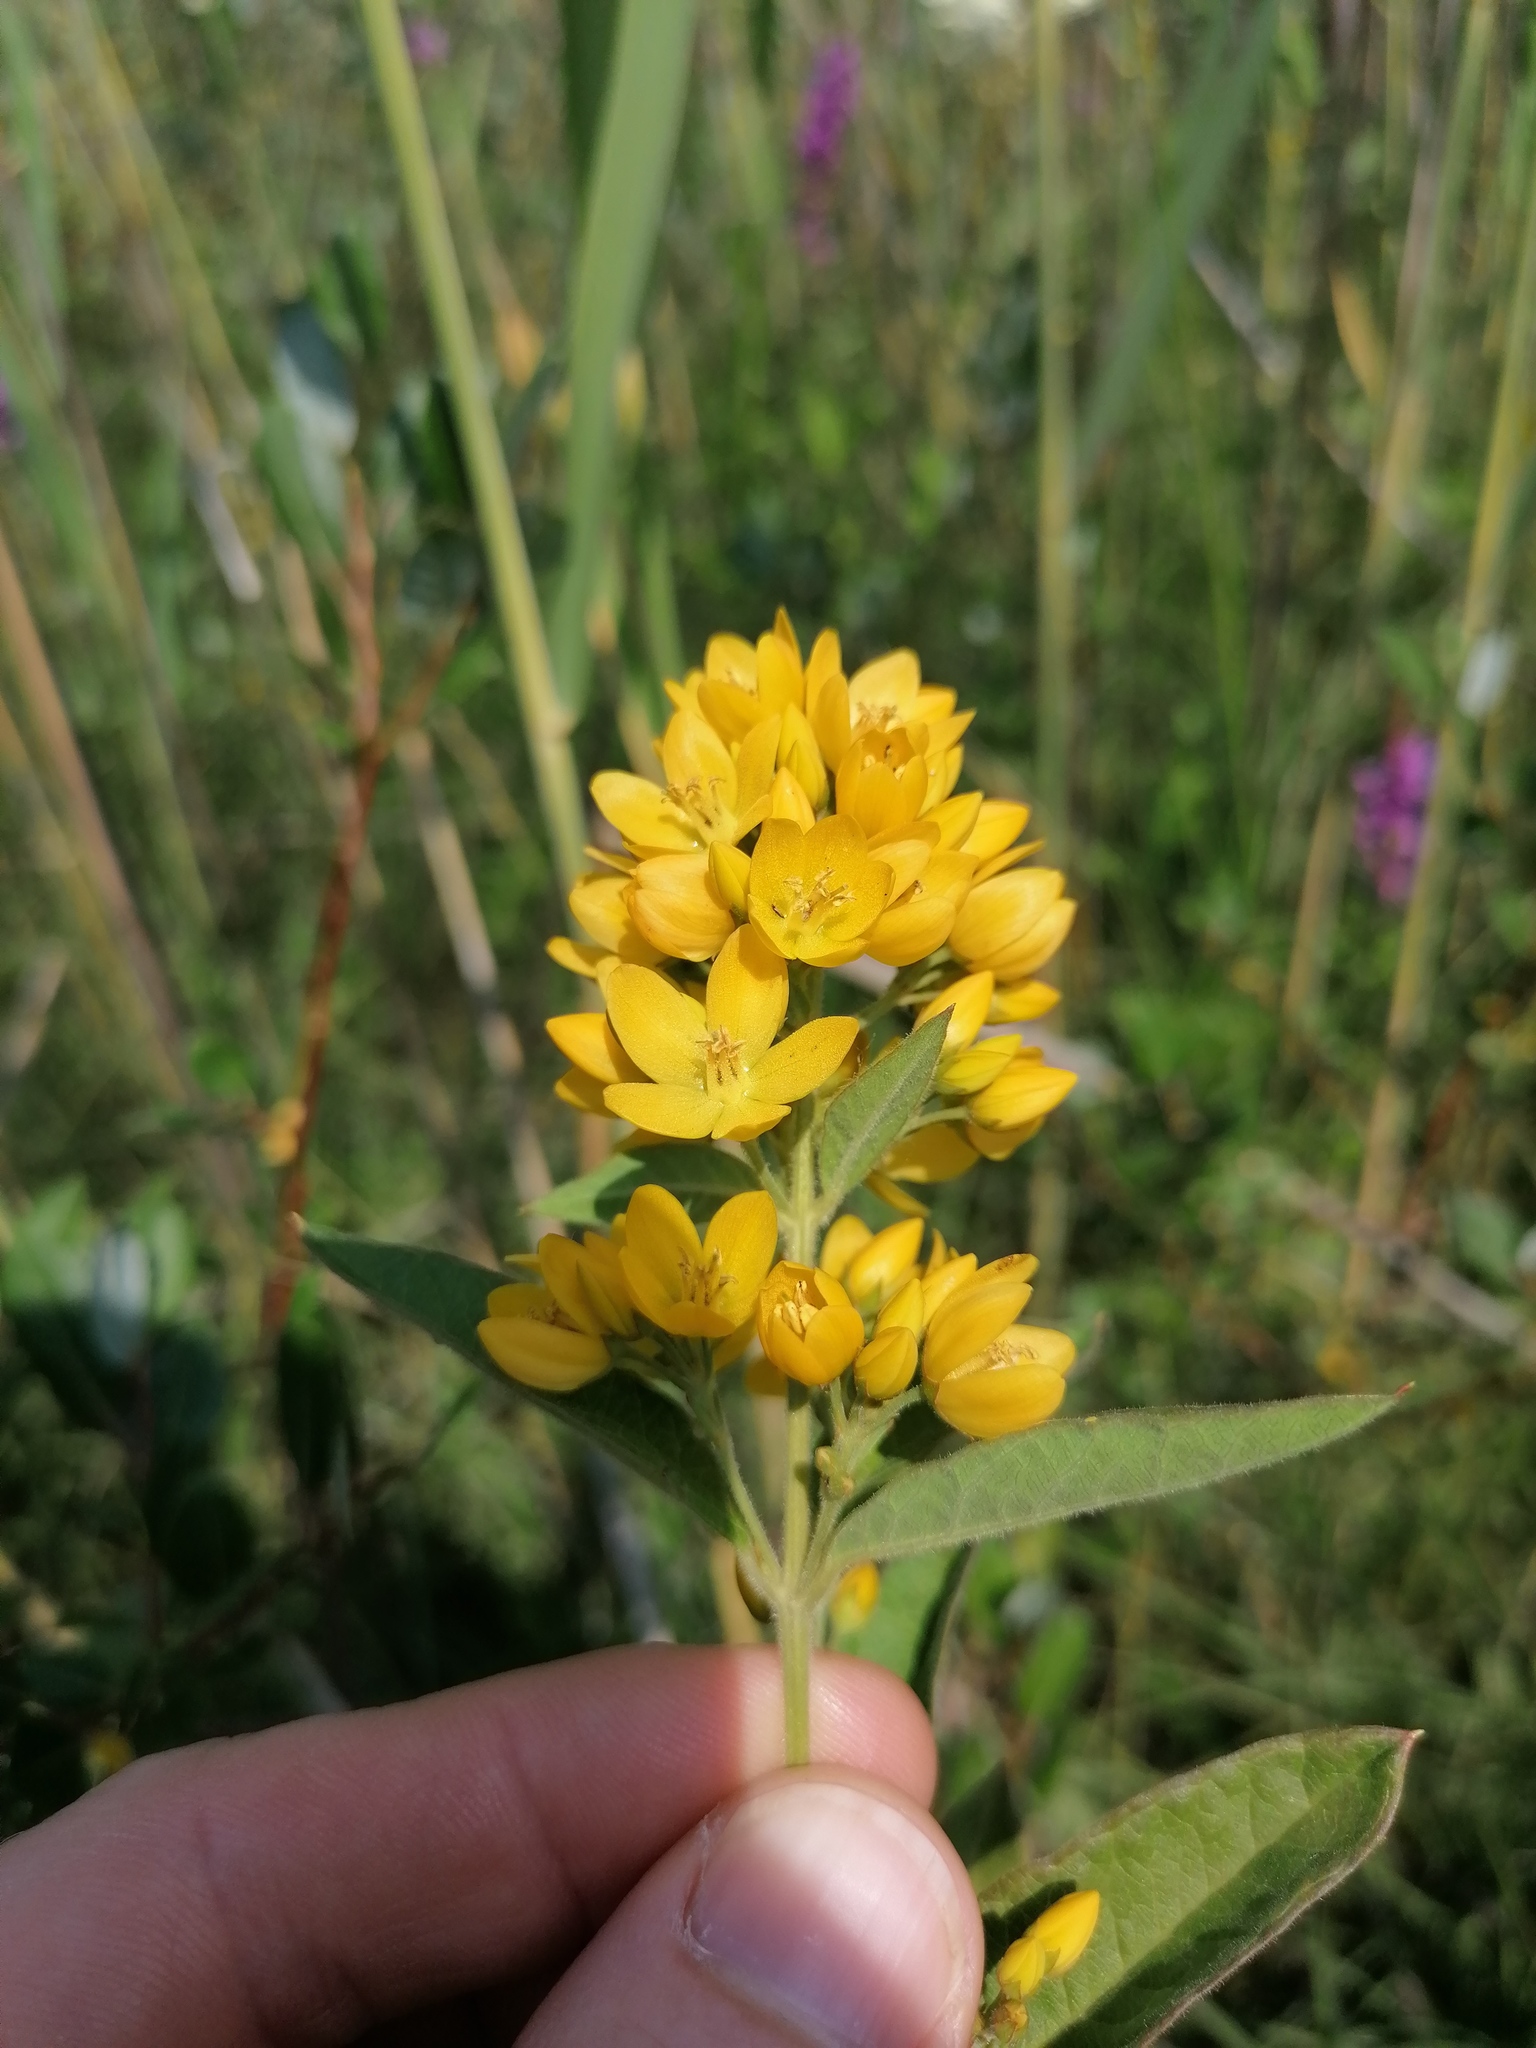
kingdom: Plantae
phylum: Tracheophyta
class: Magnoliopsida
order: Ericales
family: Primulaceae
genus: Lysimachia
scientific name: Lysimachia vulgaris
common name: Yellow loosestrife
